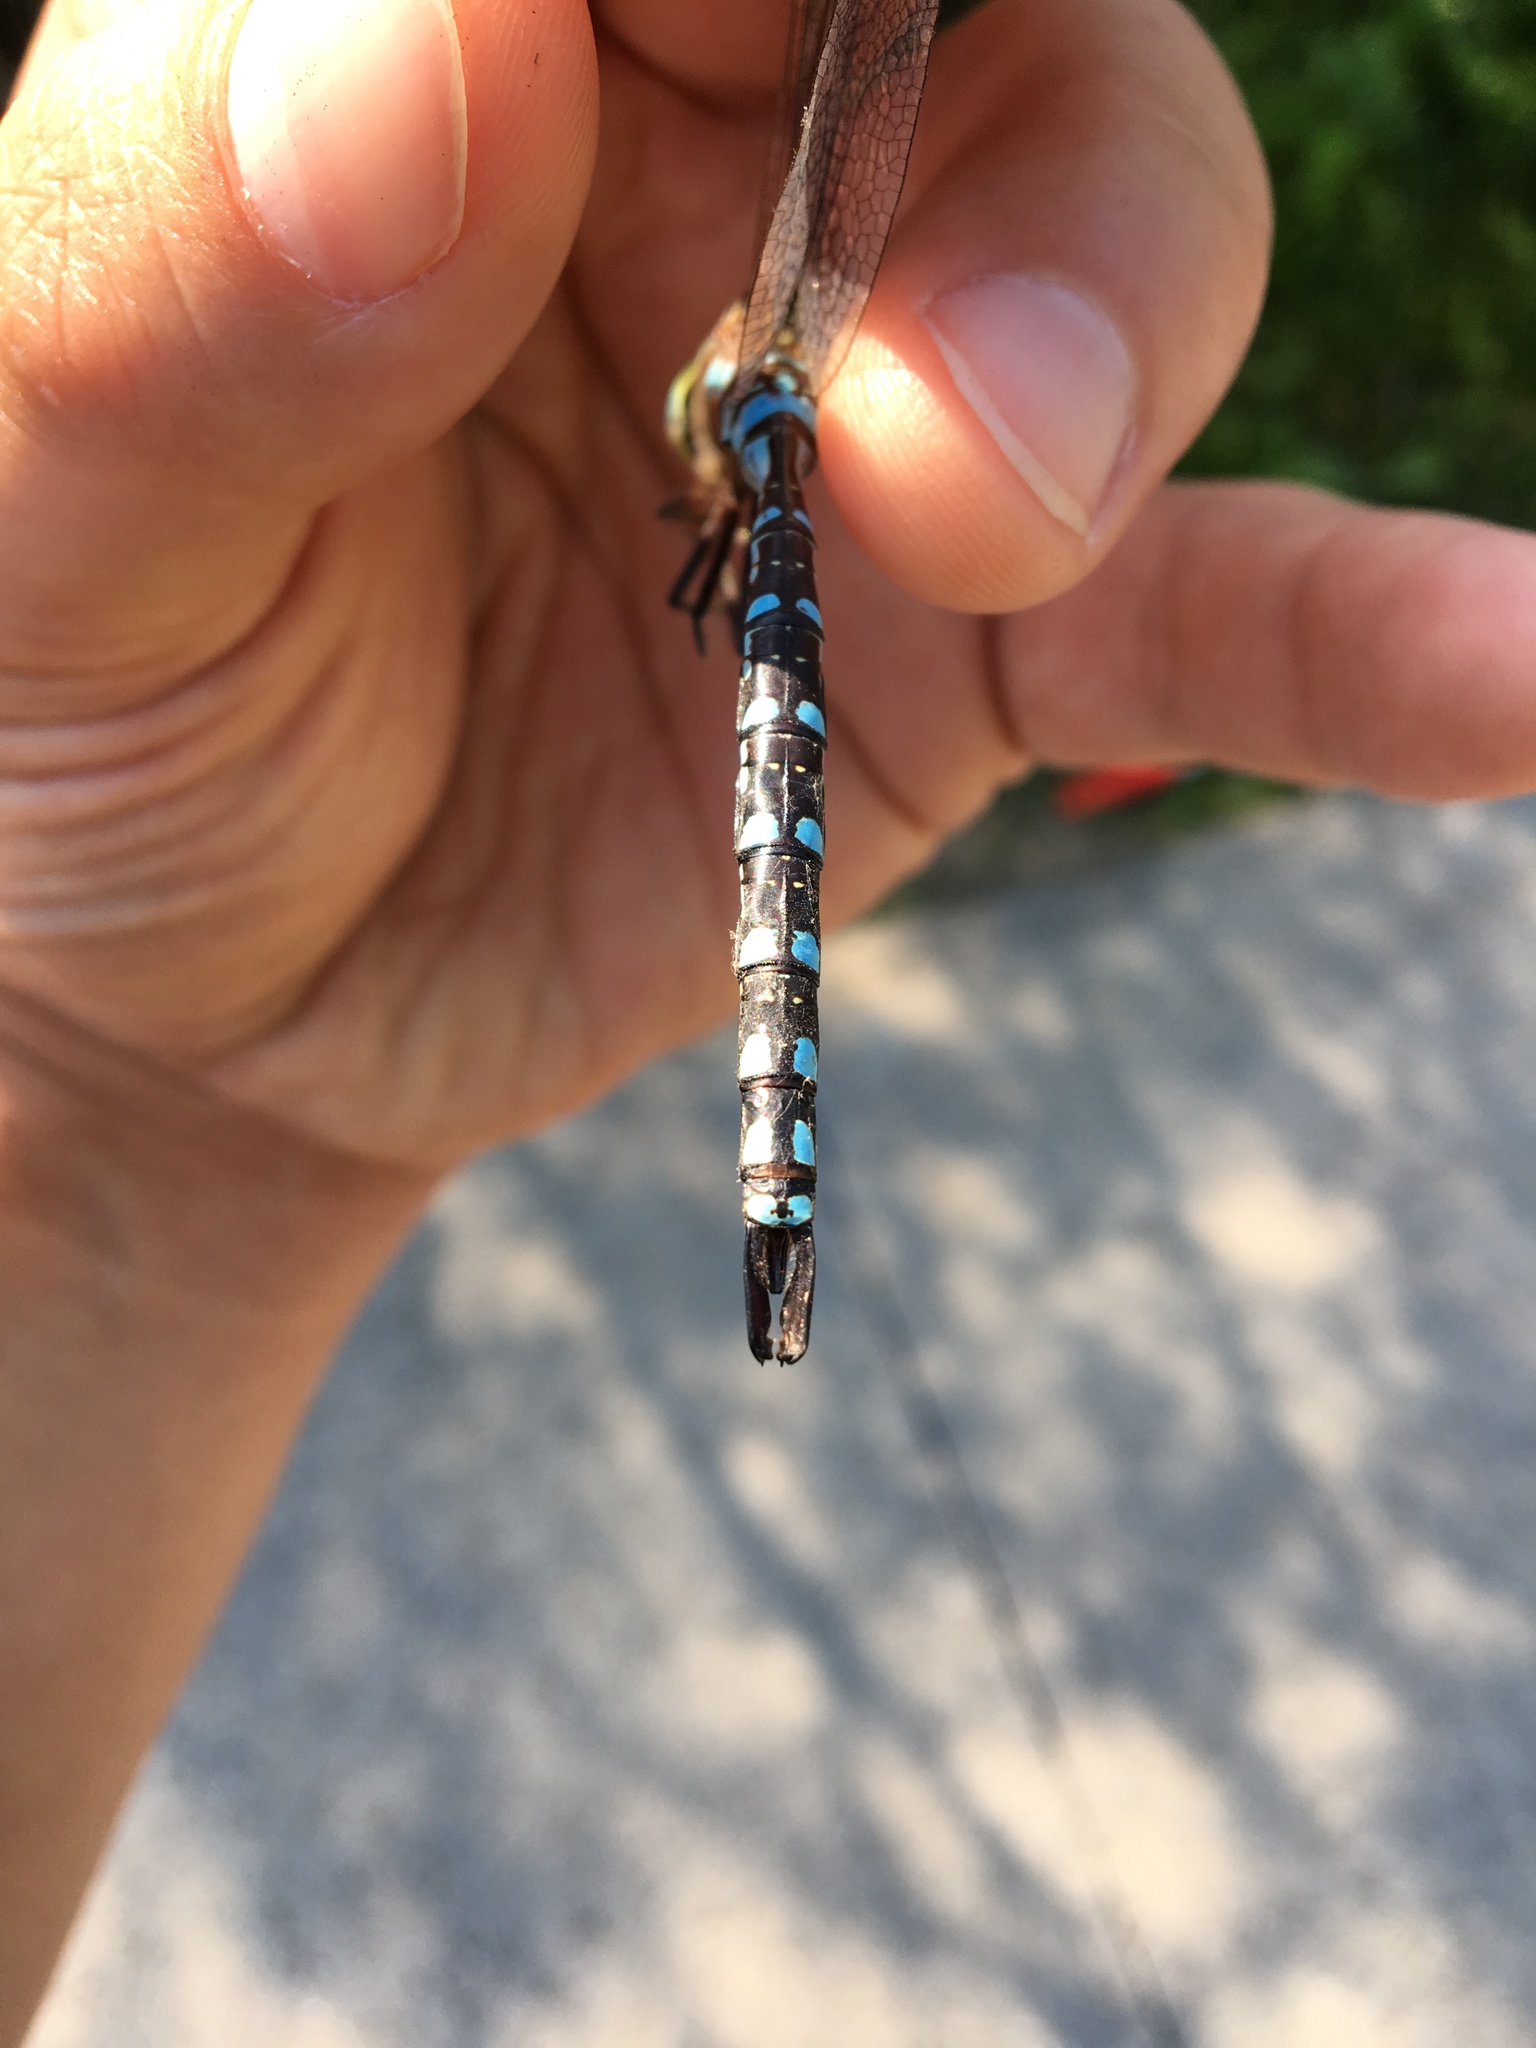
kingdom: Animalia
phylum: Arthropoda
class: Insecta
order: Odonata
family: Aeshnidae
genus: Aeshna
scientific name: Aeshna
